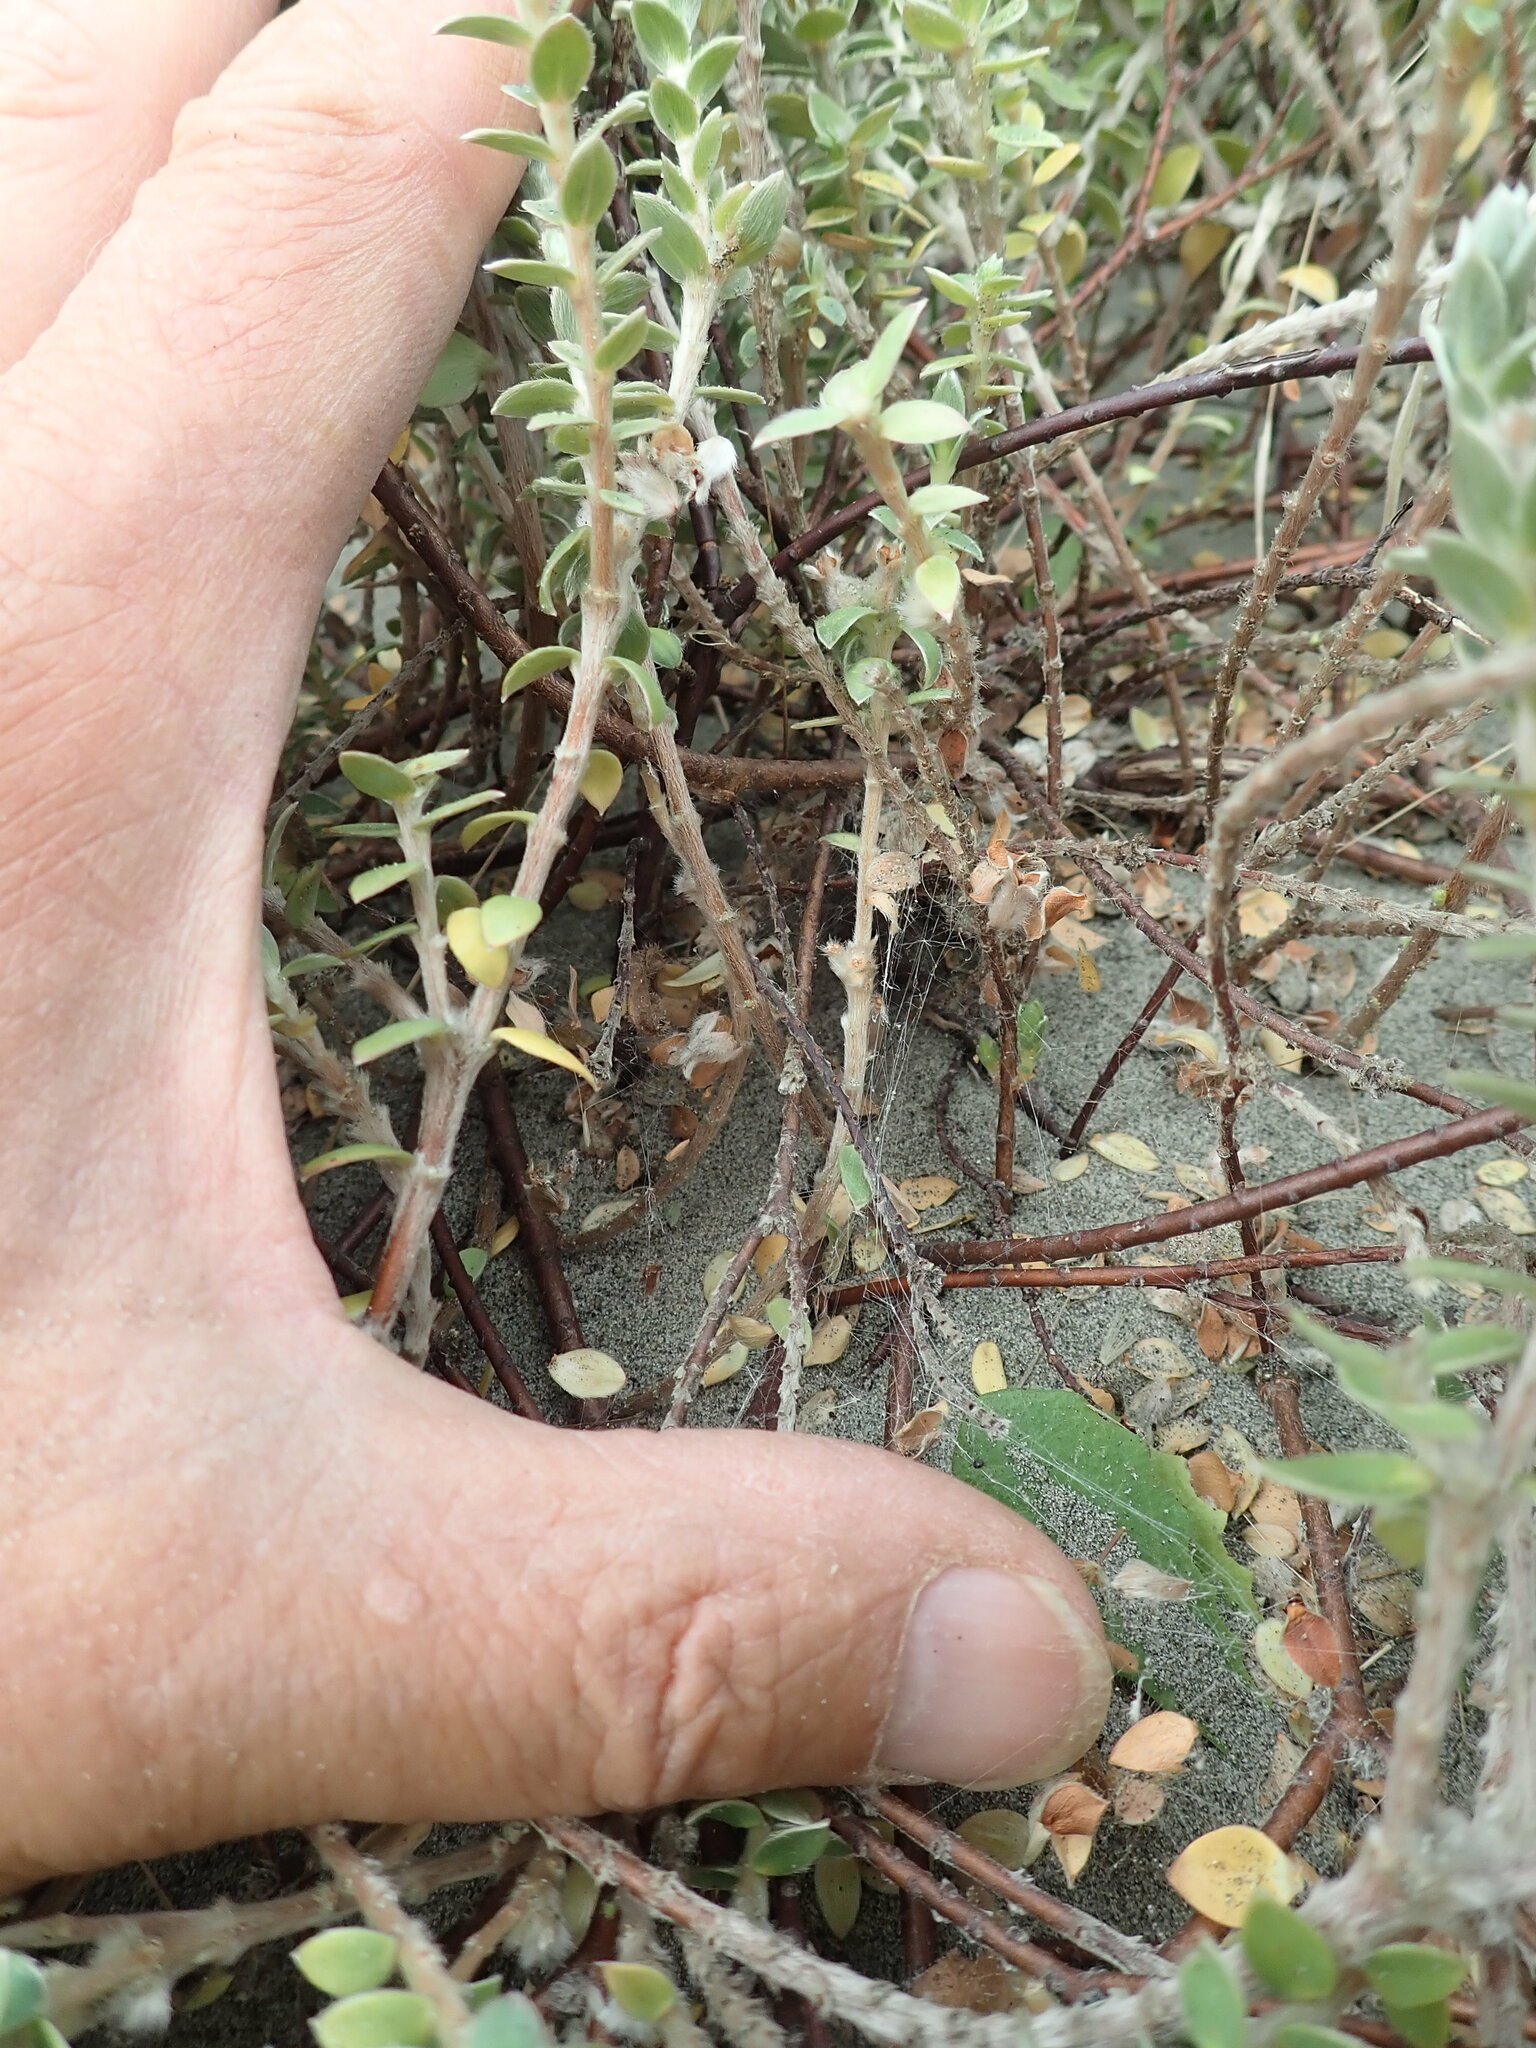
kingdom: Animalia
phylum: Arthropoda
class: Arachnida
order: Araneae
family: Theridiidae
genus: Latrodectus
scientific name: Latrodectus katipo
